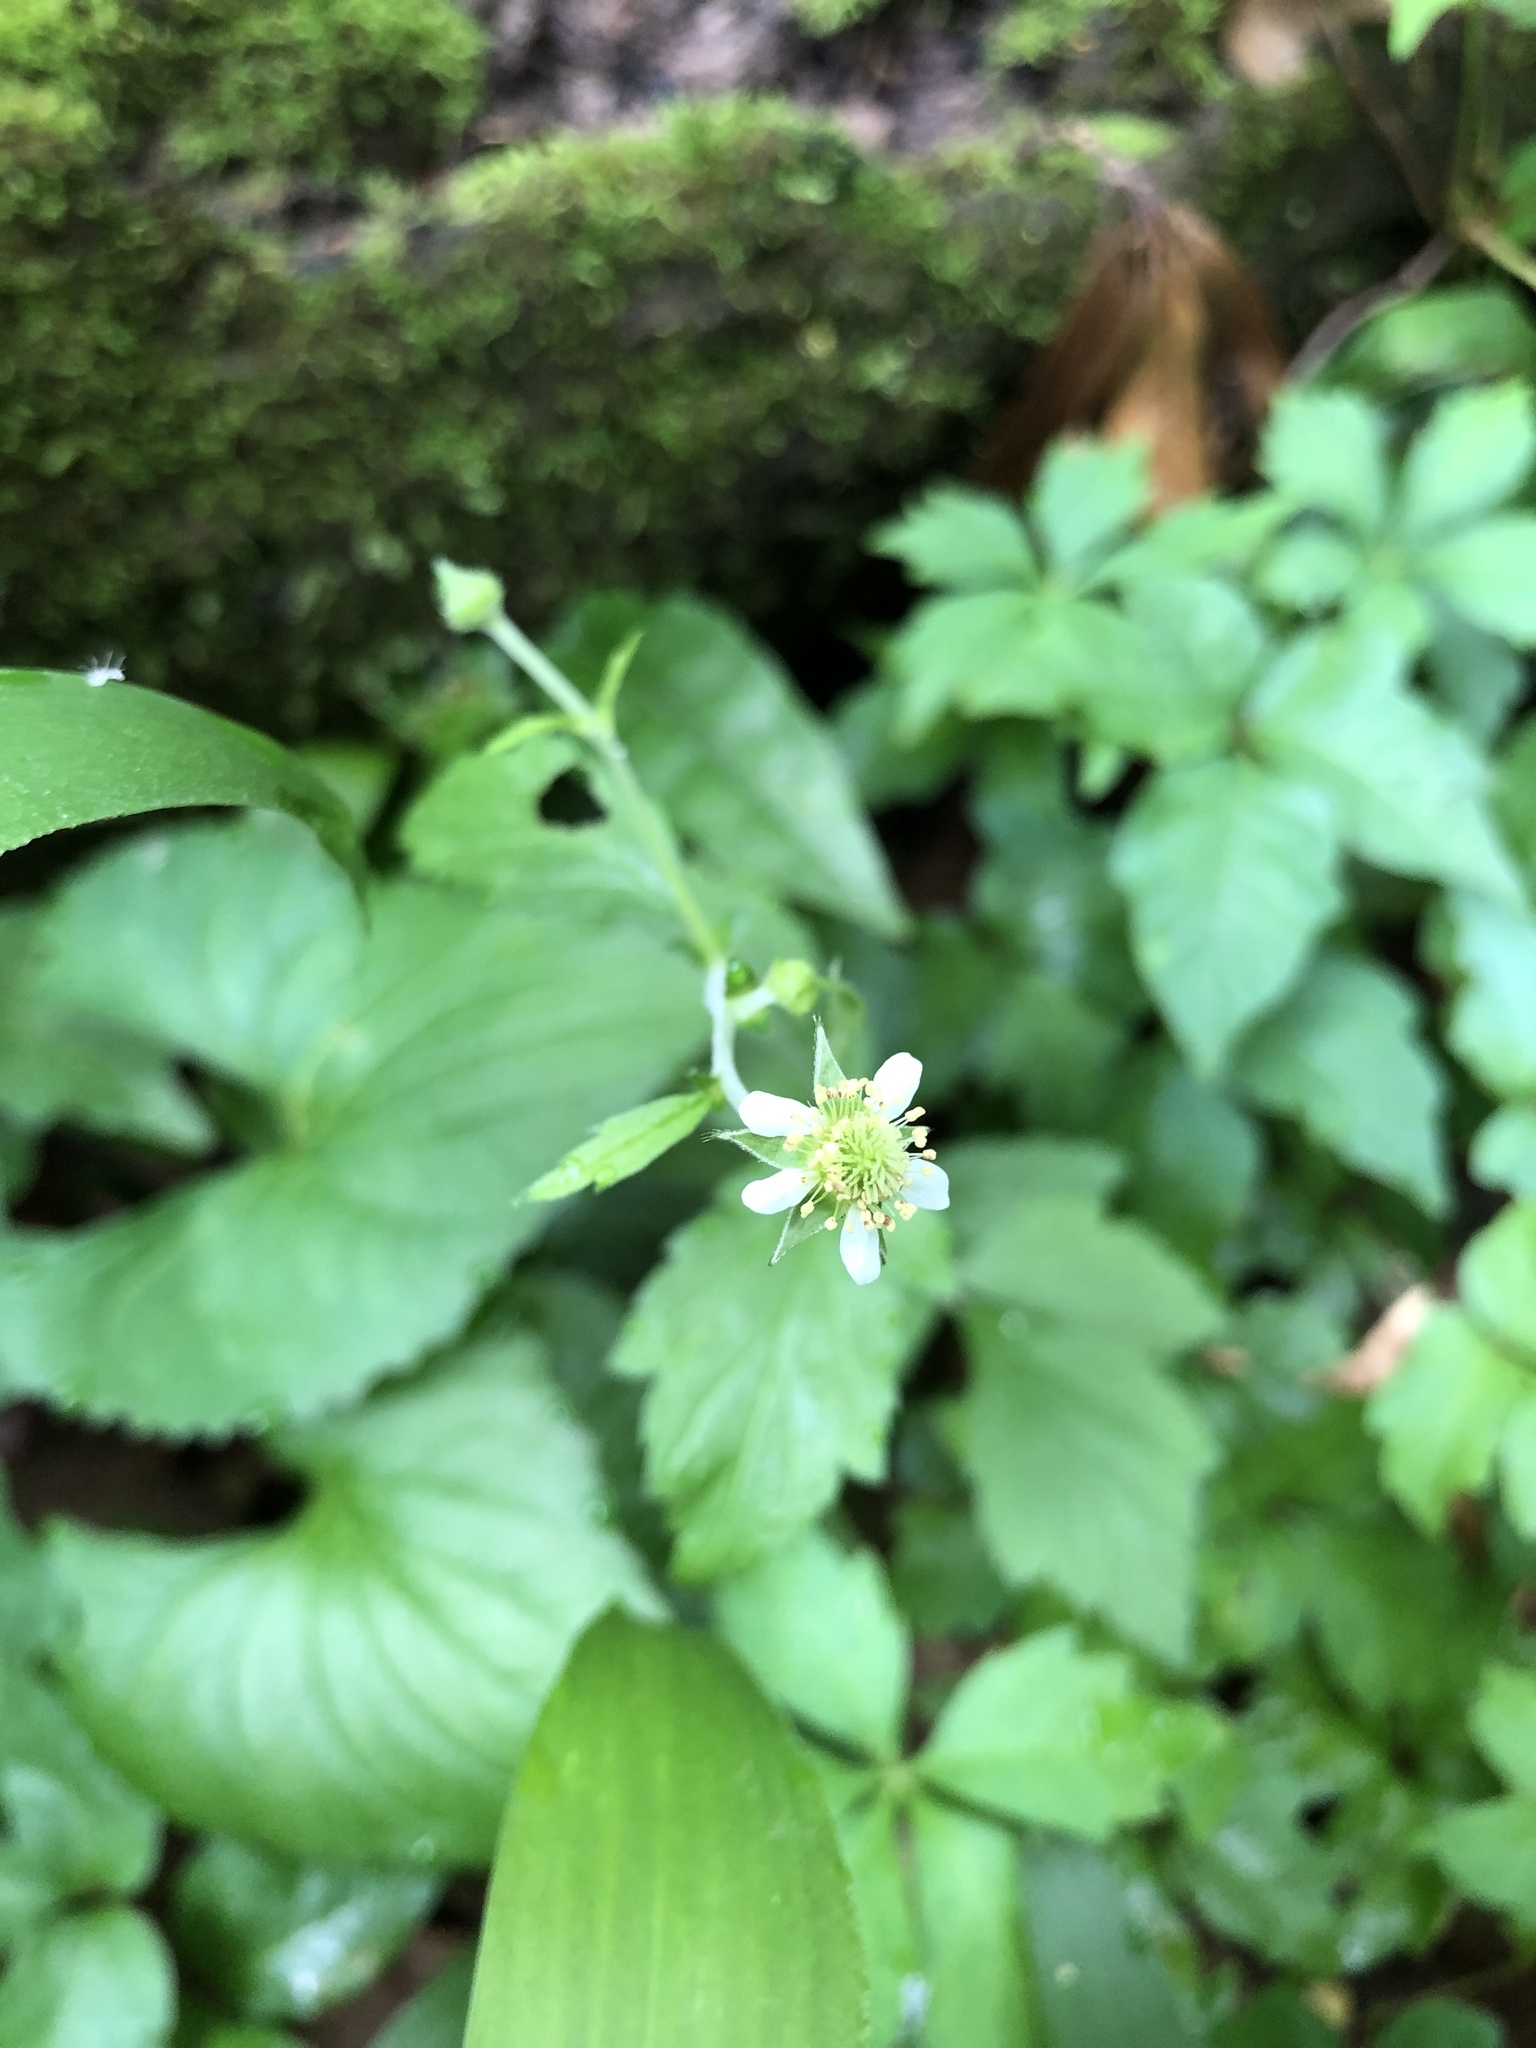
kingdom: Plantae
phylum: Tracheophyta
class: Magnoliopsida
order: Rosales
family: Rosaceae
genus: Geum
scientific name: Geum canadense
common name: White avens
